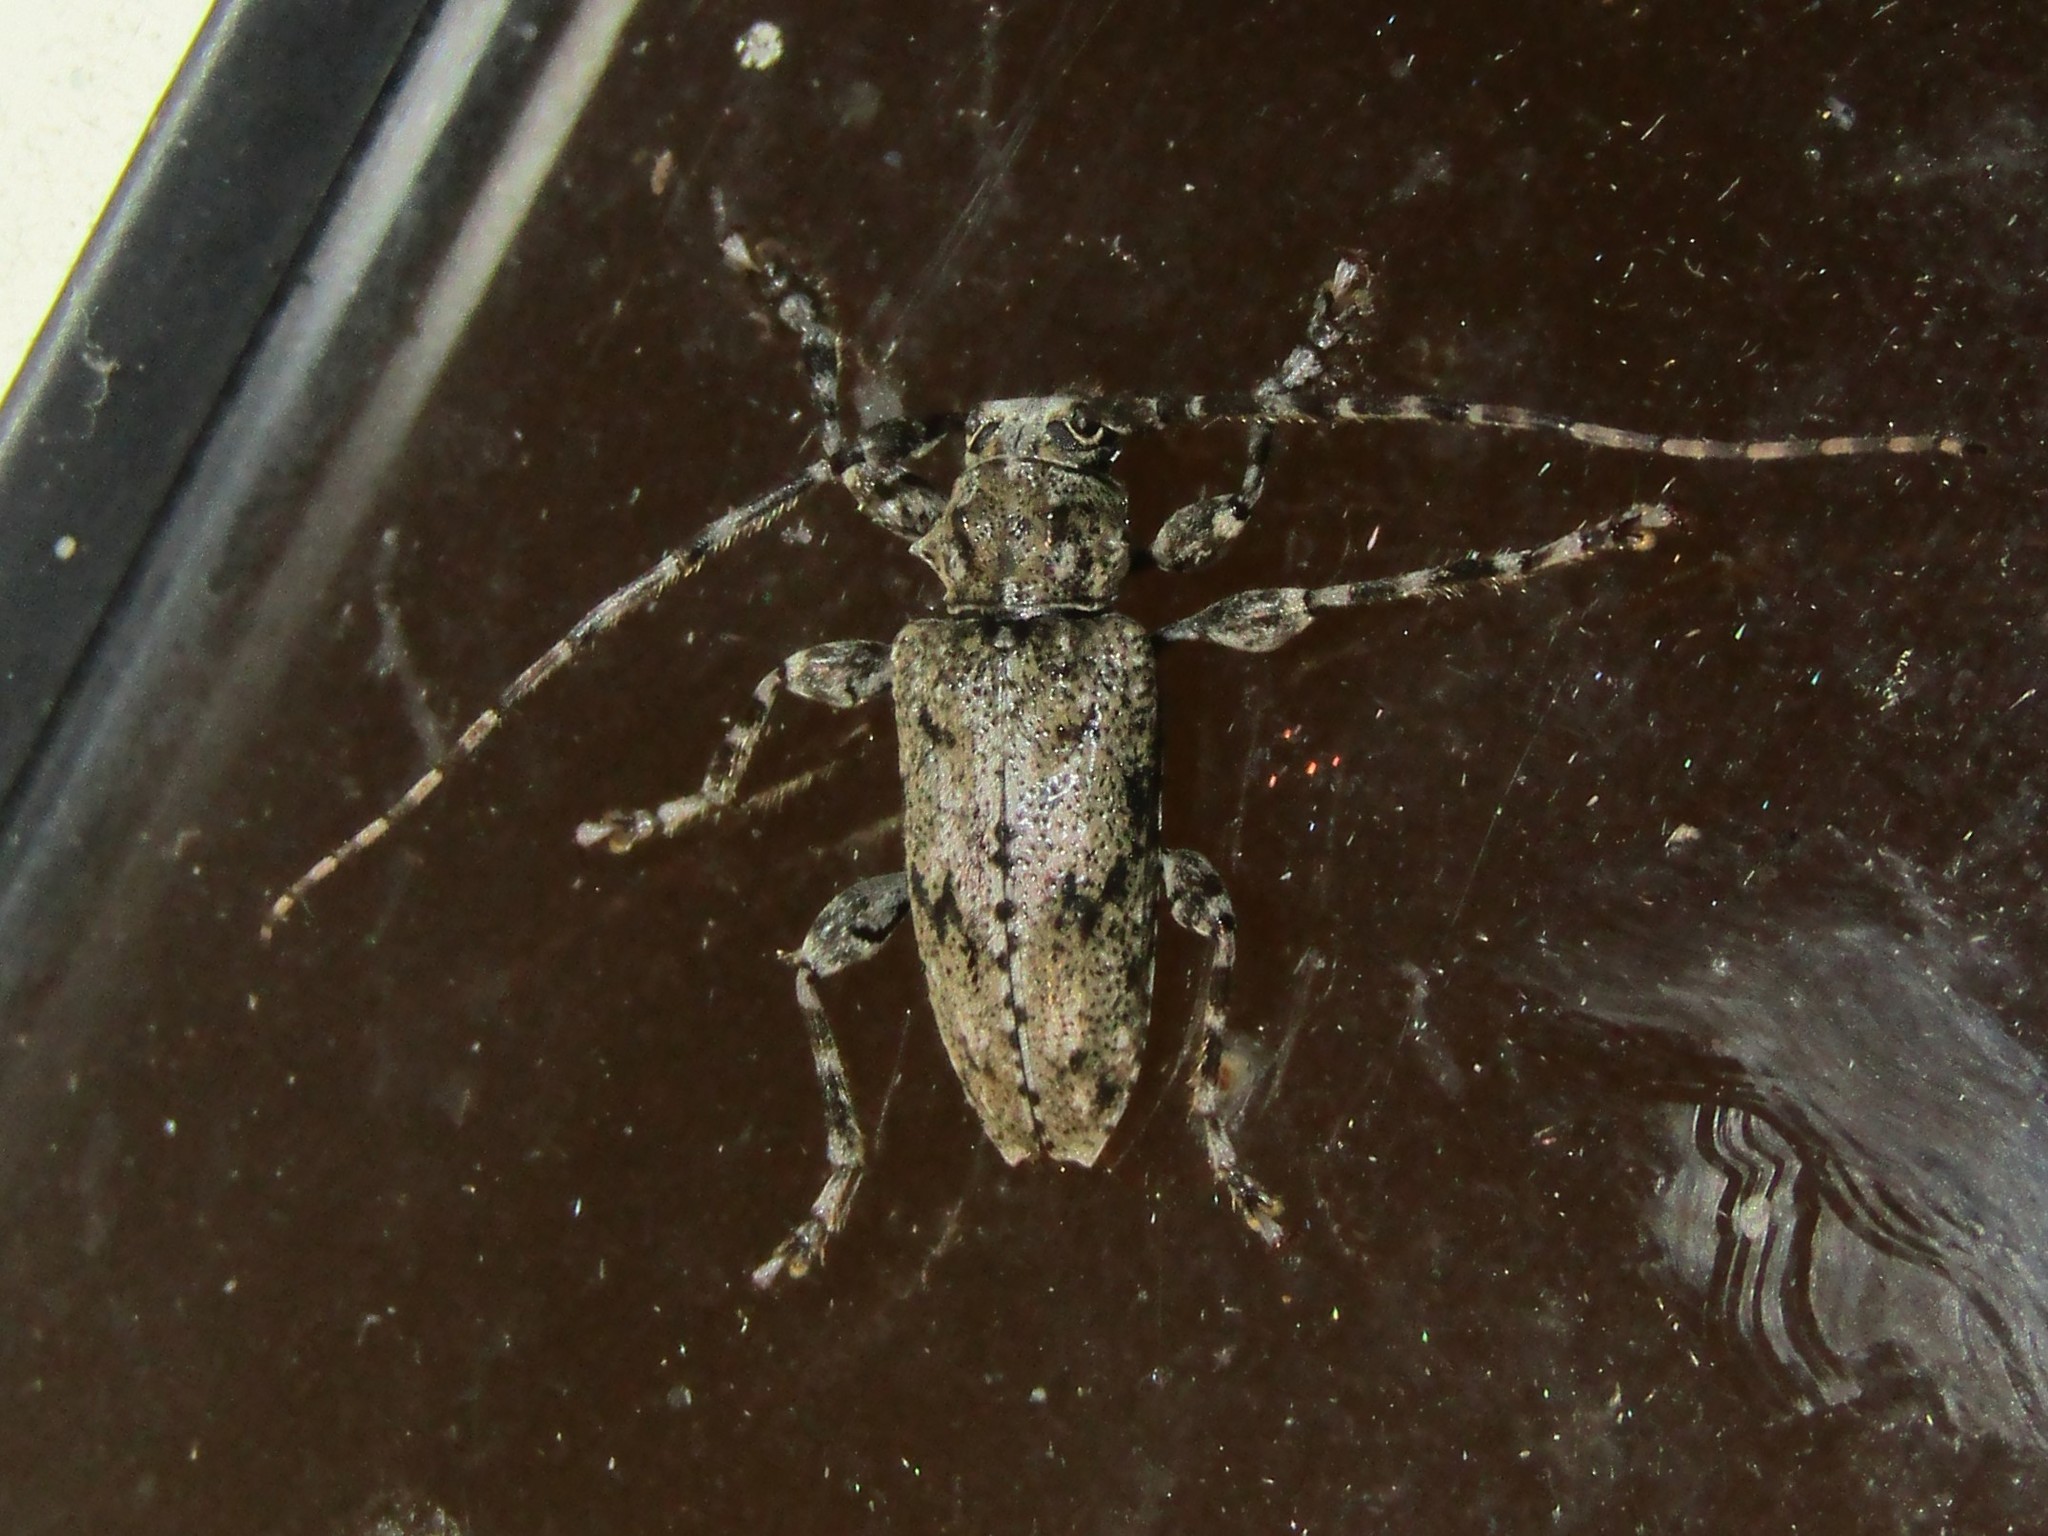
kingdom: Animalia
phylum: Arthropoda
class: Insecta
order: Coleoptera
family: Cerambycidae
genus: Aegomorphus
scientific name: Aegomorphus modestus
